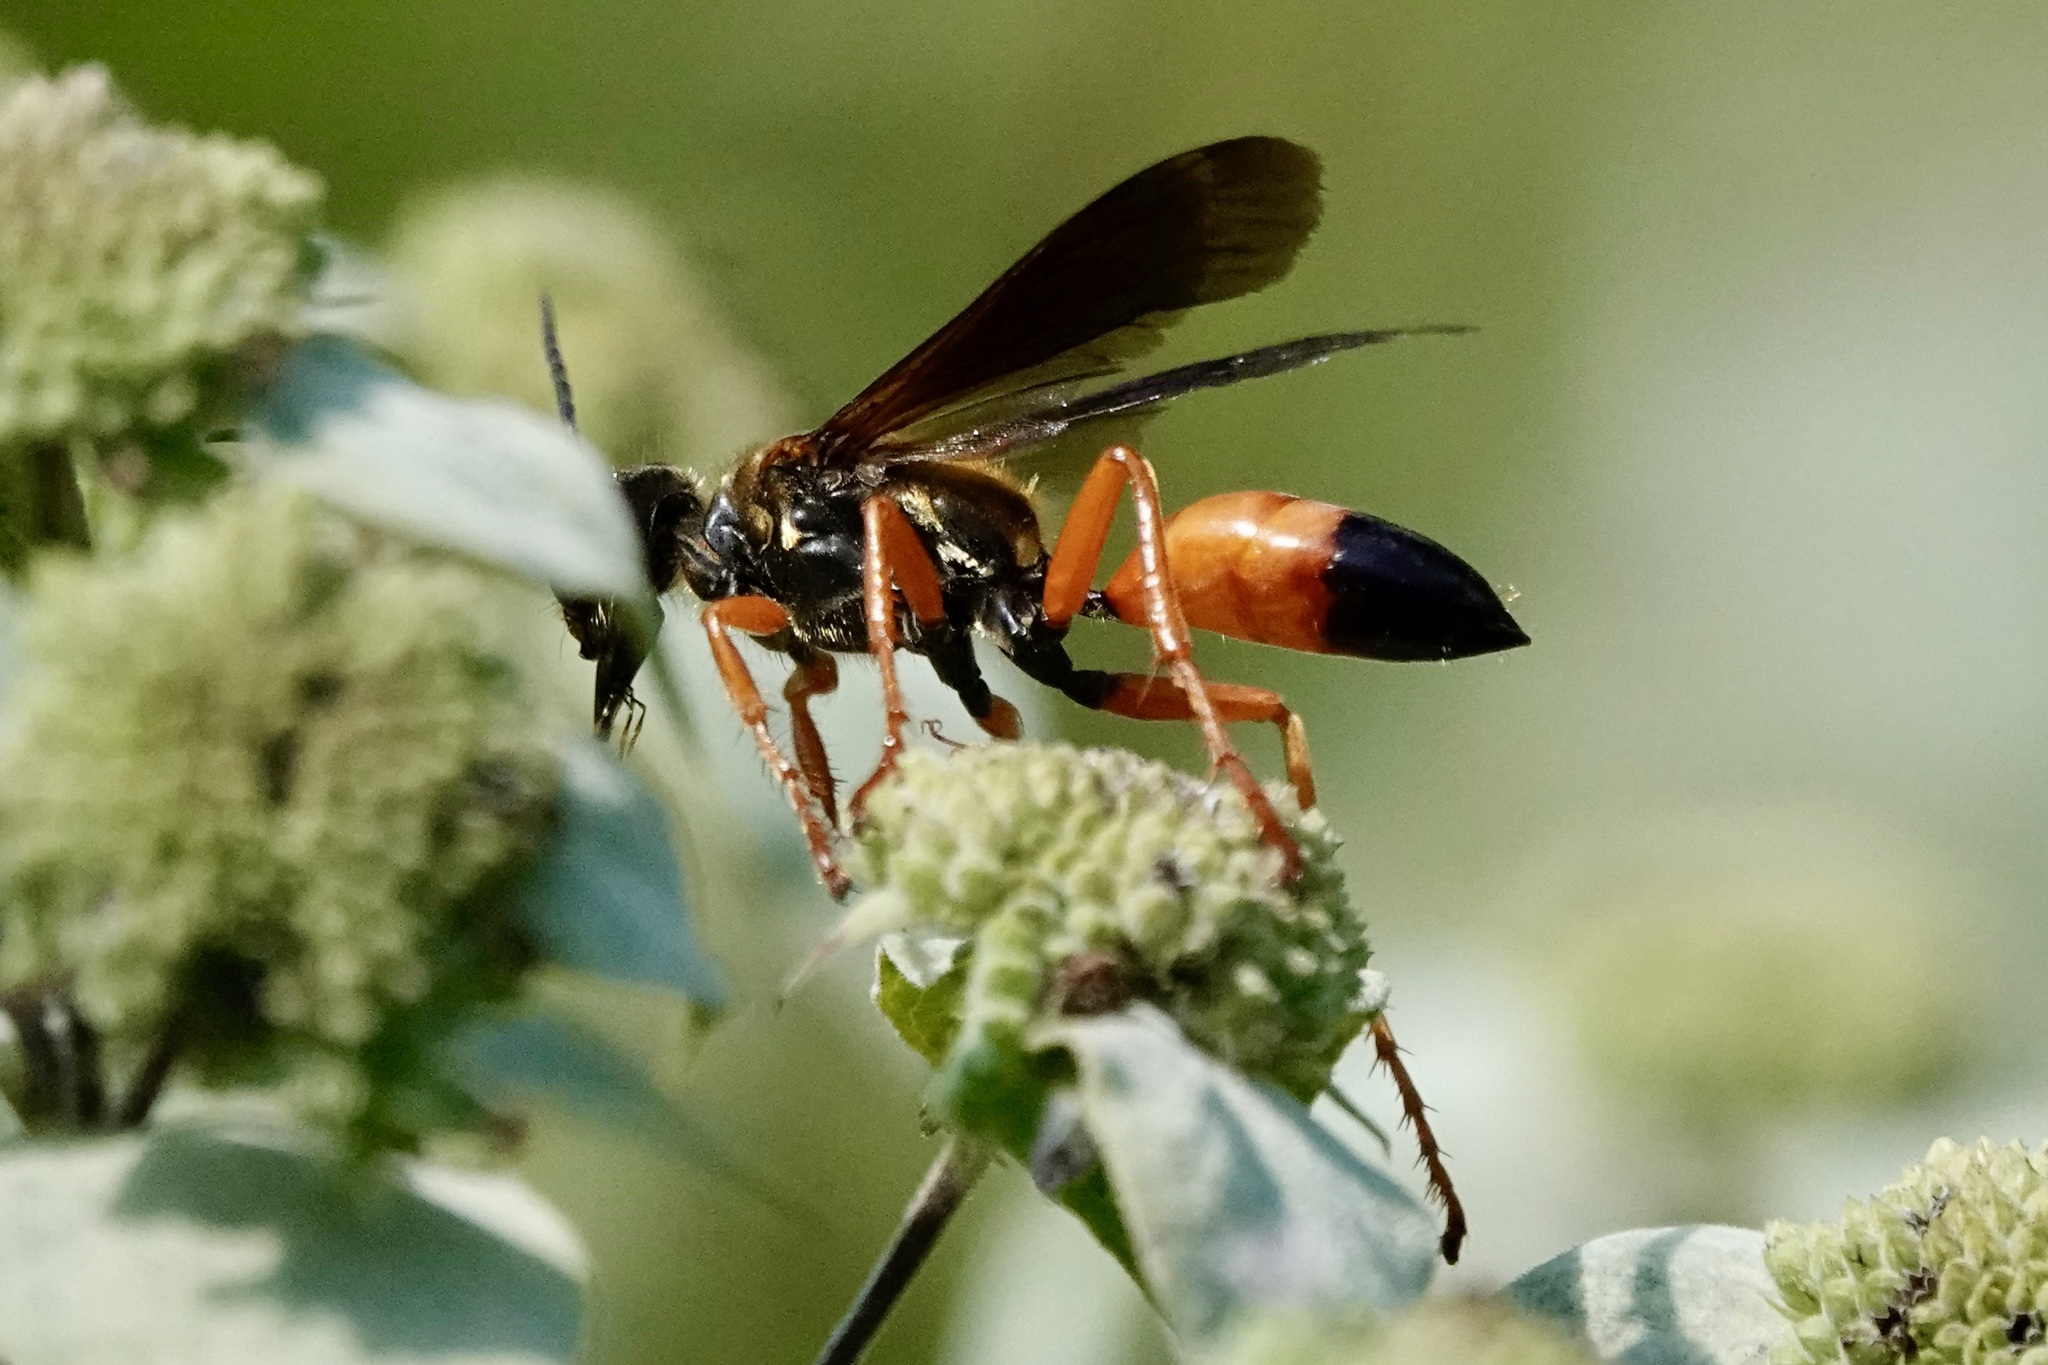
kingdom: Animalia
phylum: Arthropoda
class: Insecta
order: Hymenoptera
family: Sphecidae
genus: Sphex
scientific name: Sphex ichneumoneus
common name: Great golden digger wasp
